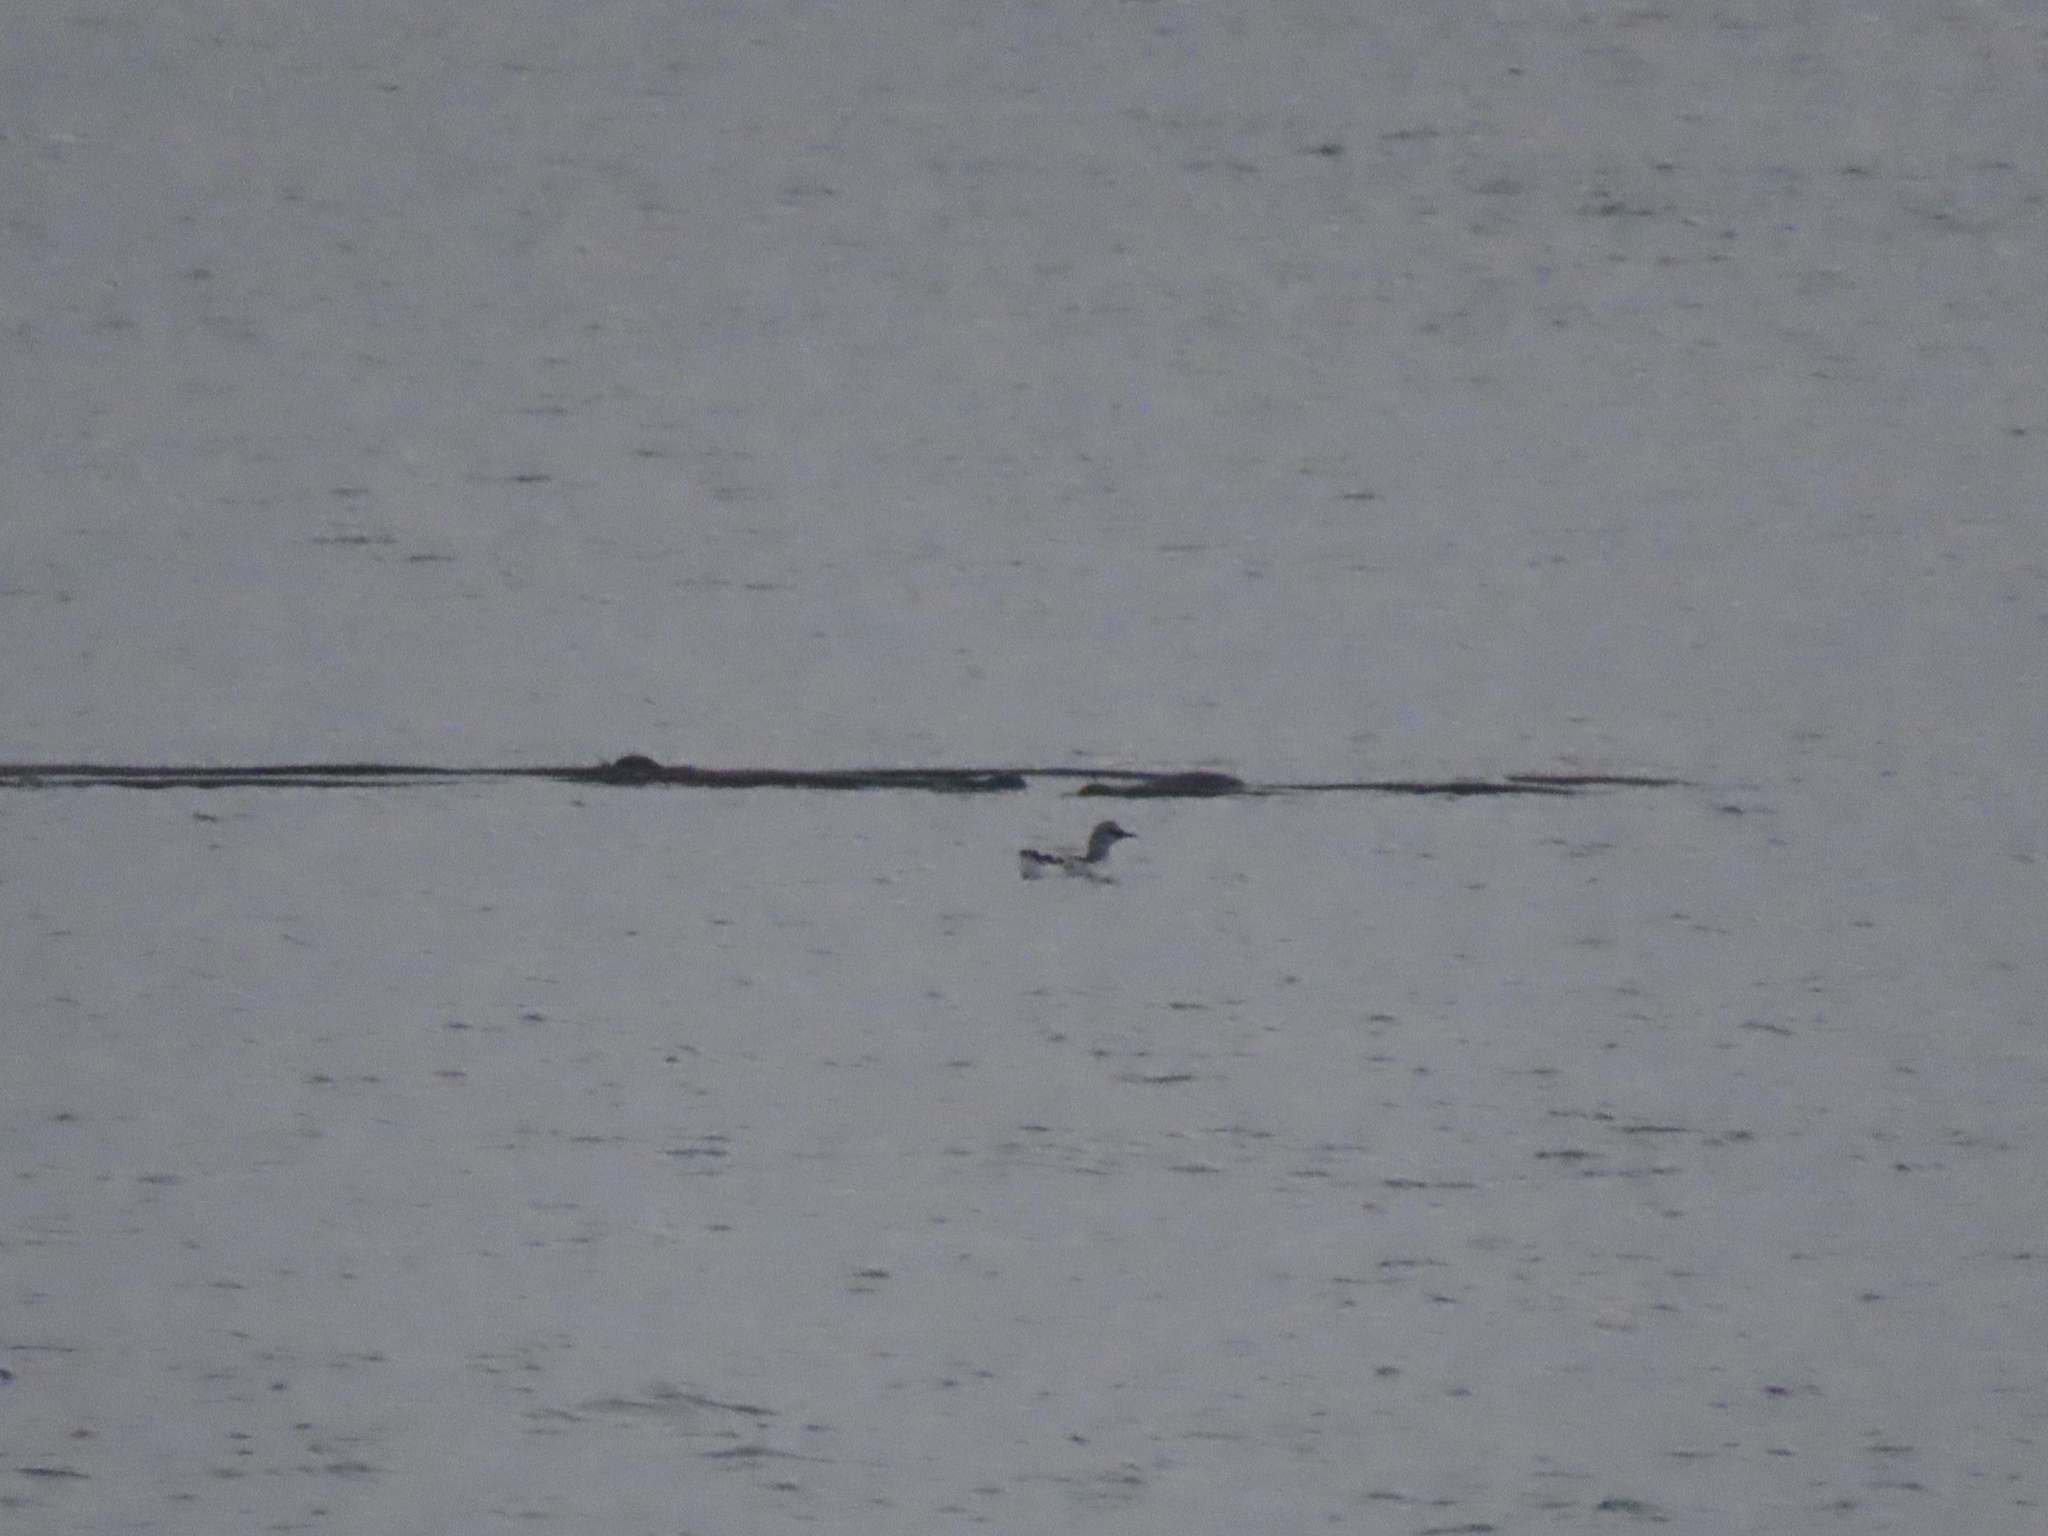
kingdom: Animalia
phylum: Chordata
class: Aves
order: Charadriiformes
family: Alcidae
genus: Cepphus
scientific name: Cepphus columba
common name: Pigeon guillemot
